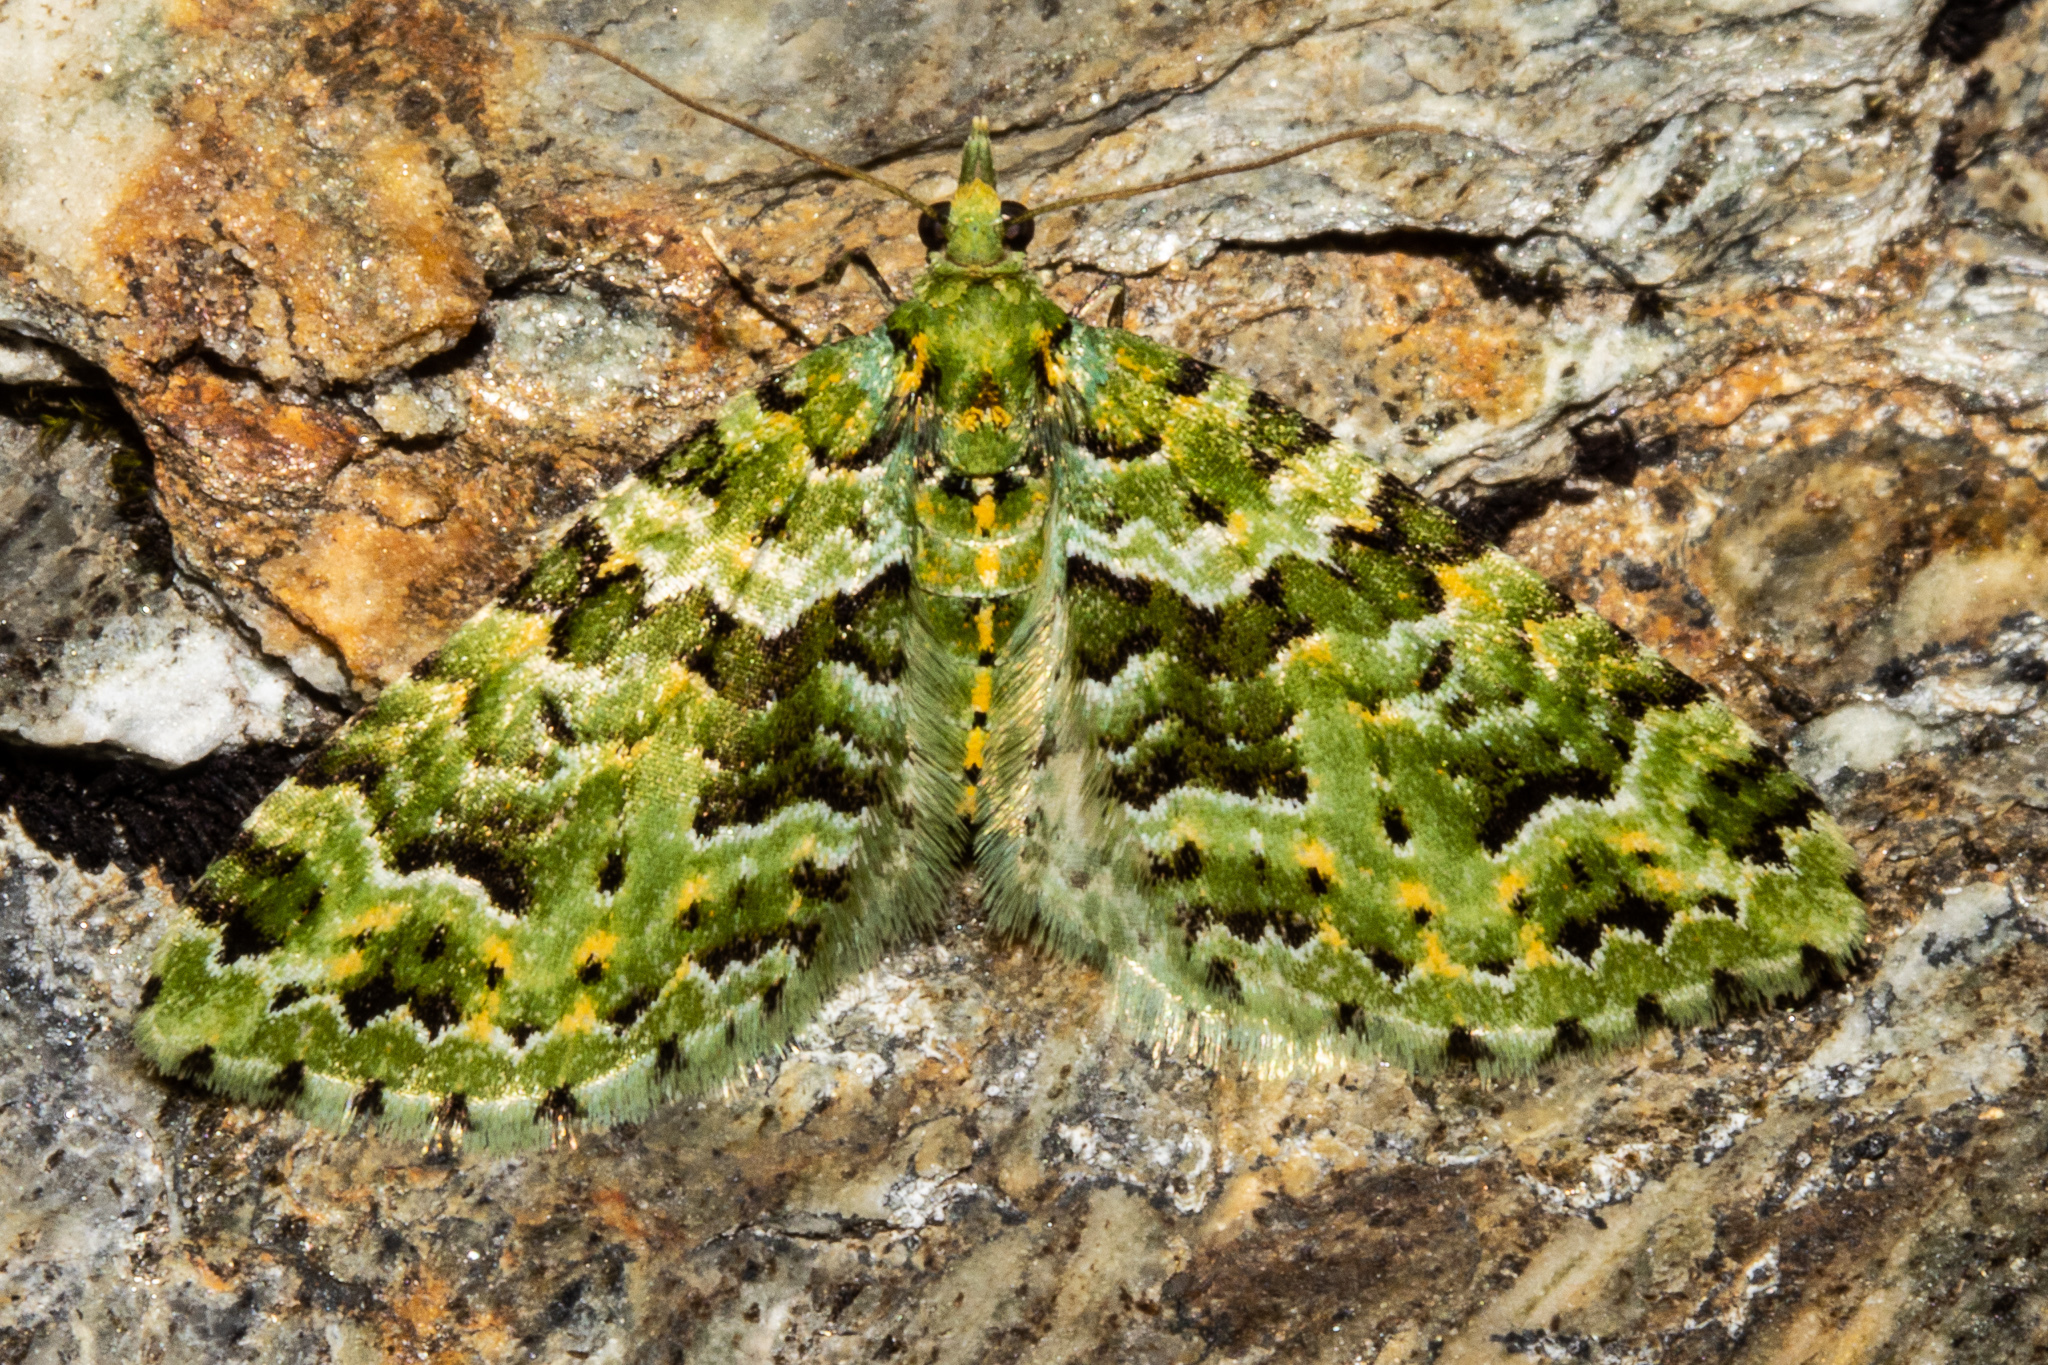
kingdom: Animalia
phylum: Arthropoda
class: Insecta
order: Lepidoptera
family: Geometridae
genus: Pasiphila
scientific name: Pasiphila melochlora
